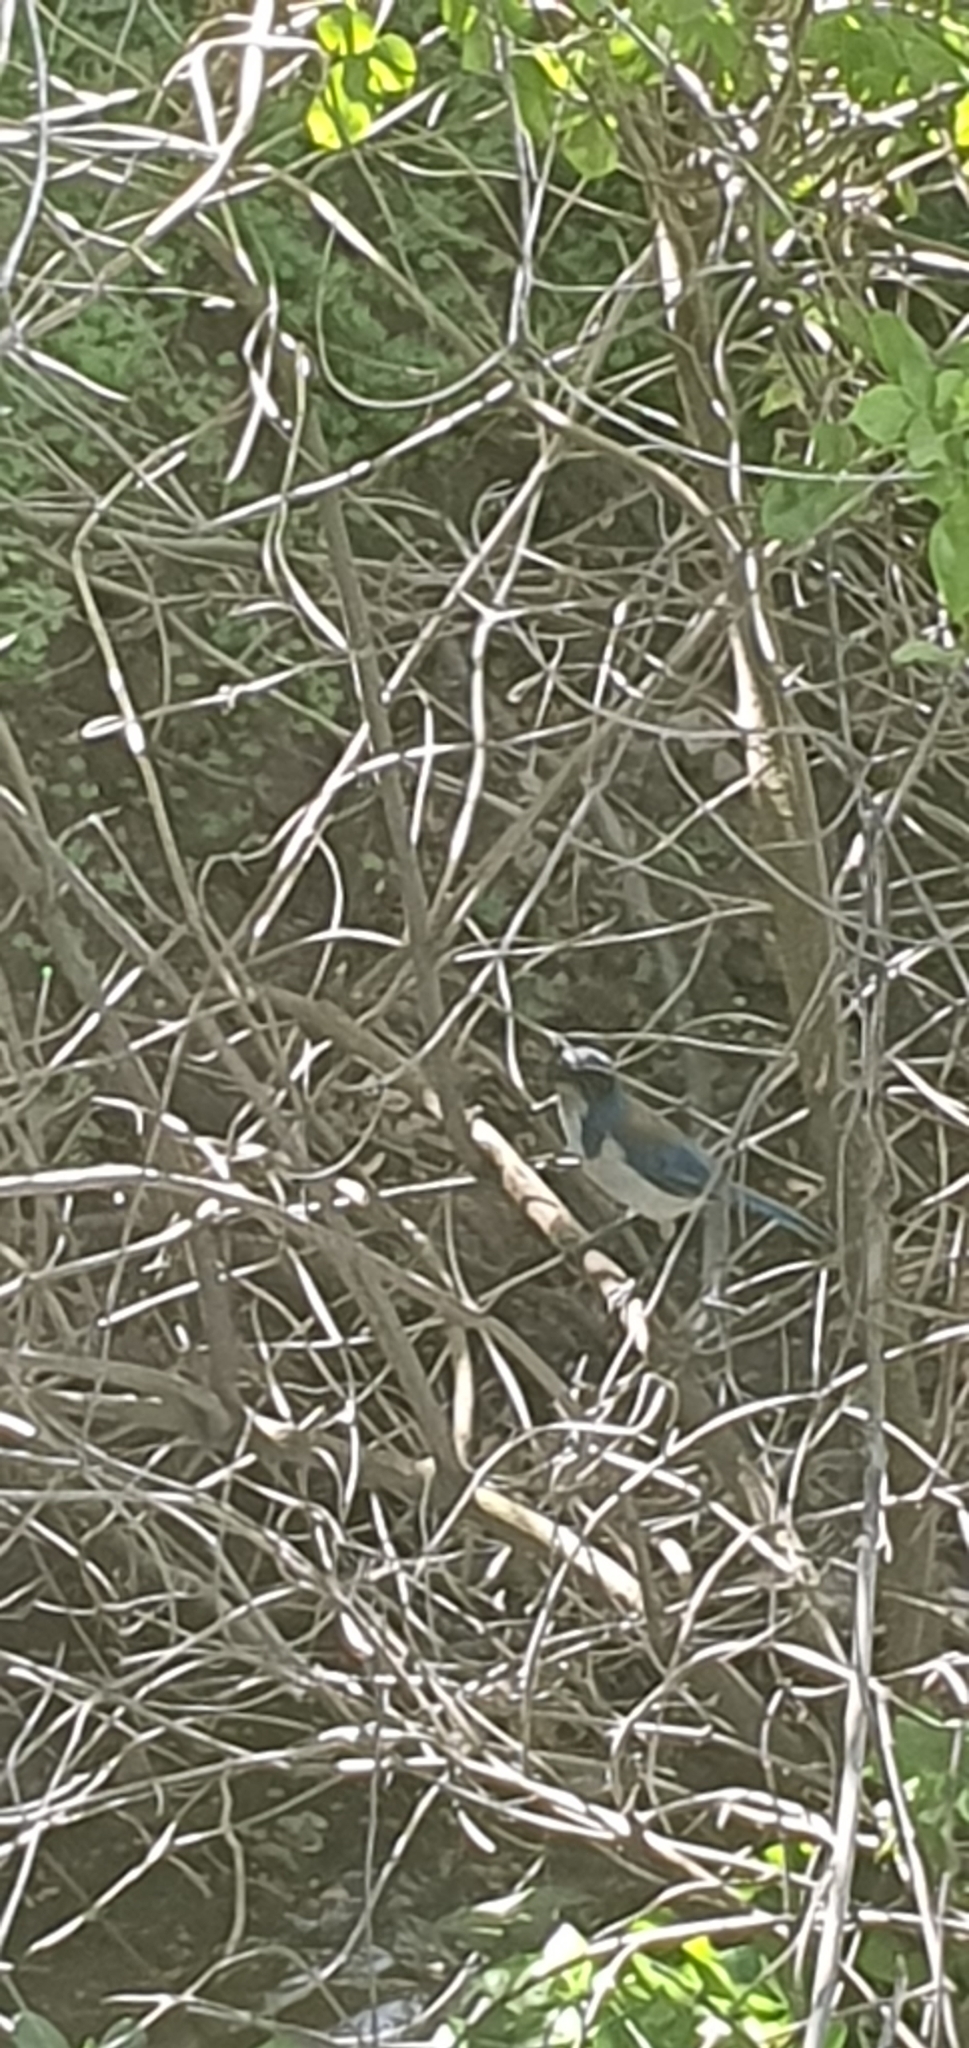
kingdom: Animalia
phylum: Chordata
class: Aves
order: Passeriformes
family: Corvidae
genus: Aphelocoma
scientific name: Aphelocoma californica
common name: California scrub-jay
